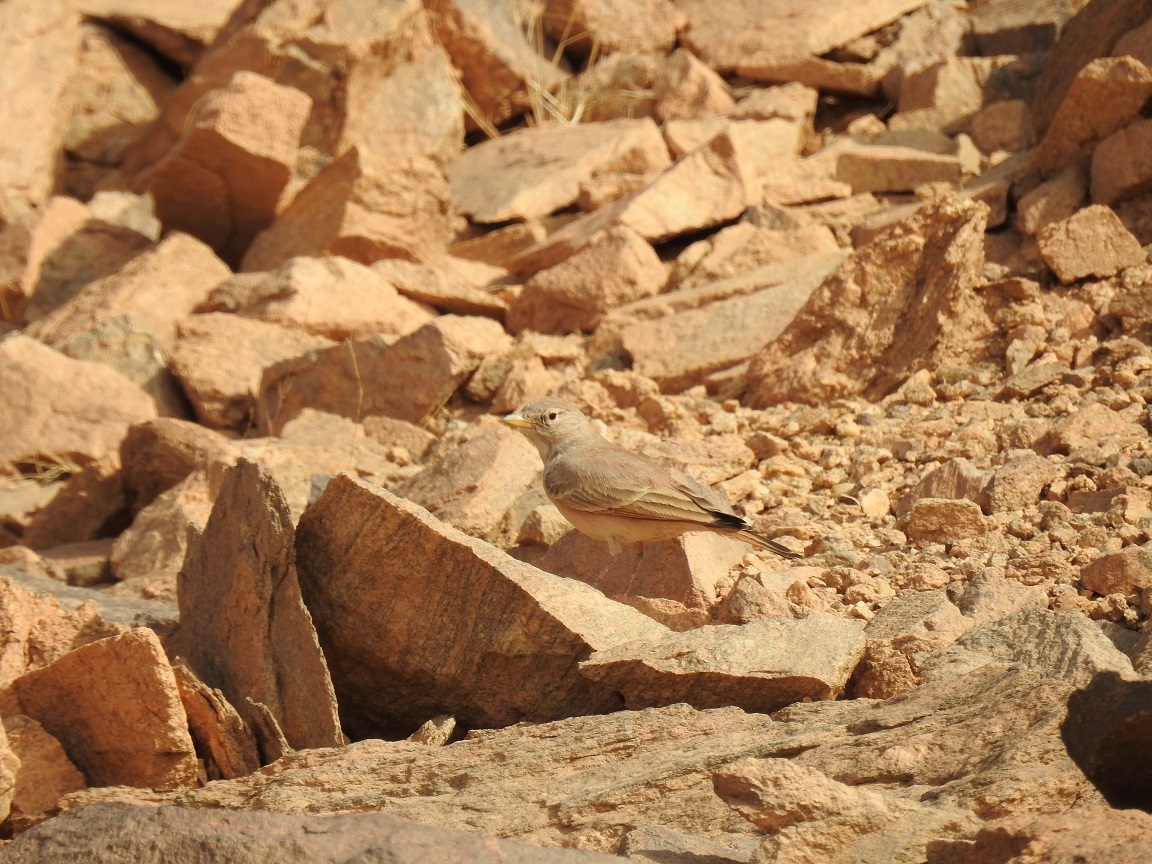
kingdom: Animalia
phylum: Chordata
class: Aves
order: Passeriformes
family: Alaudidae
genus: Ammomanes
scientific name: Ammomanes deserti
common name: Desert lark
